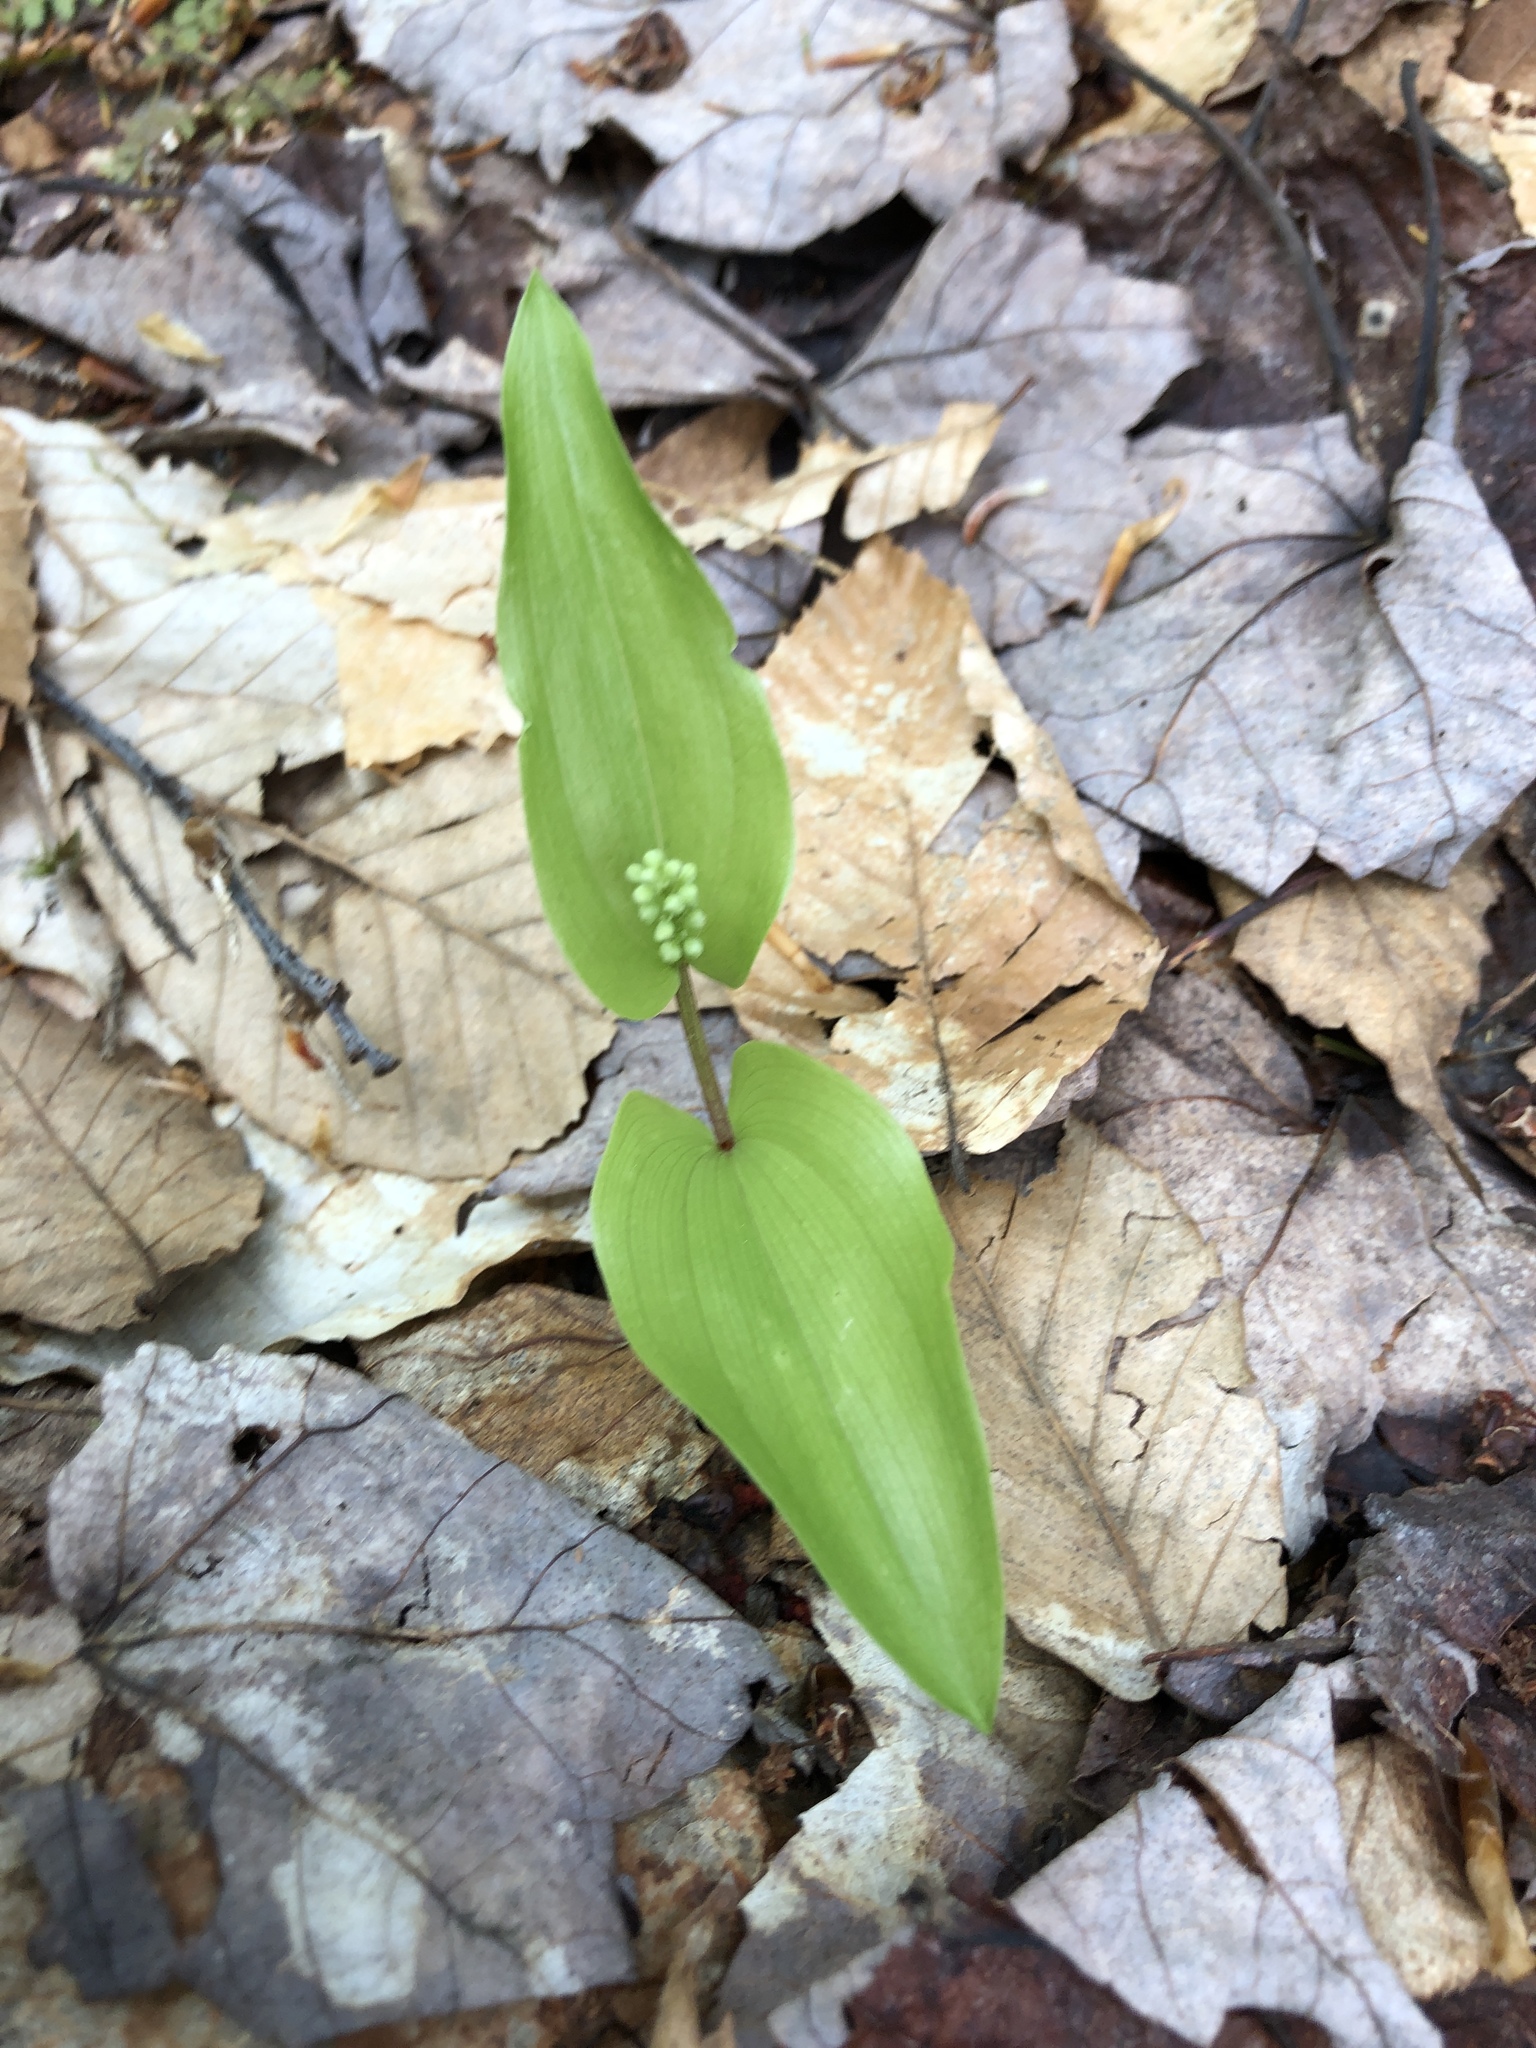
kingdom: Plantae
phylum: Tracheophyta
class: Liliopsida
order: Asparagales
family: Asparagaceae
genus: Maianthemum
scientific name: Maianthemum canadense
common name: False lily-of-the-valley
